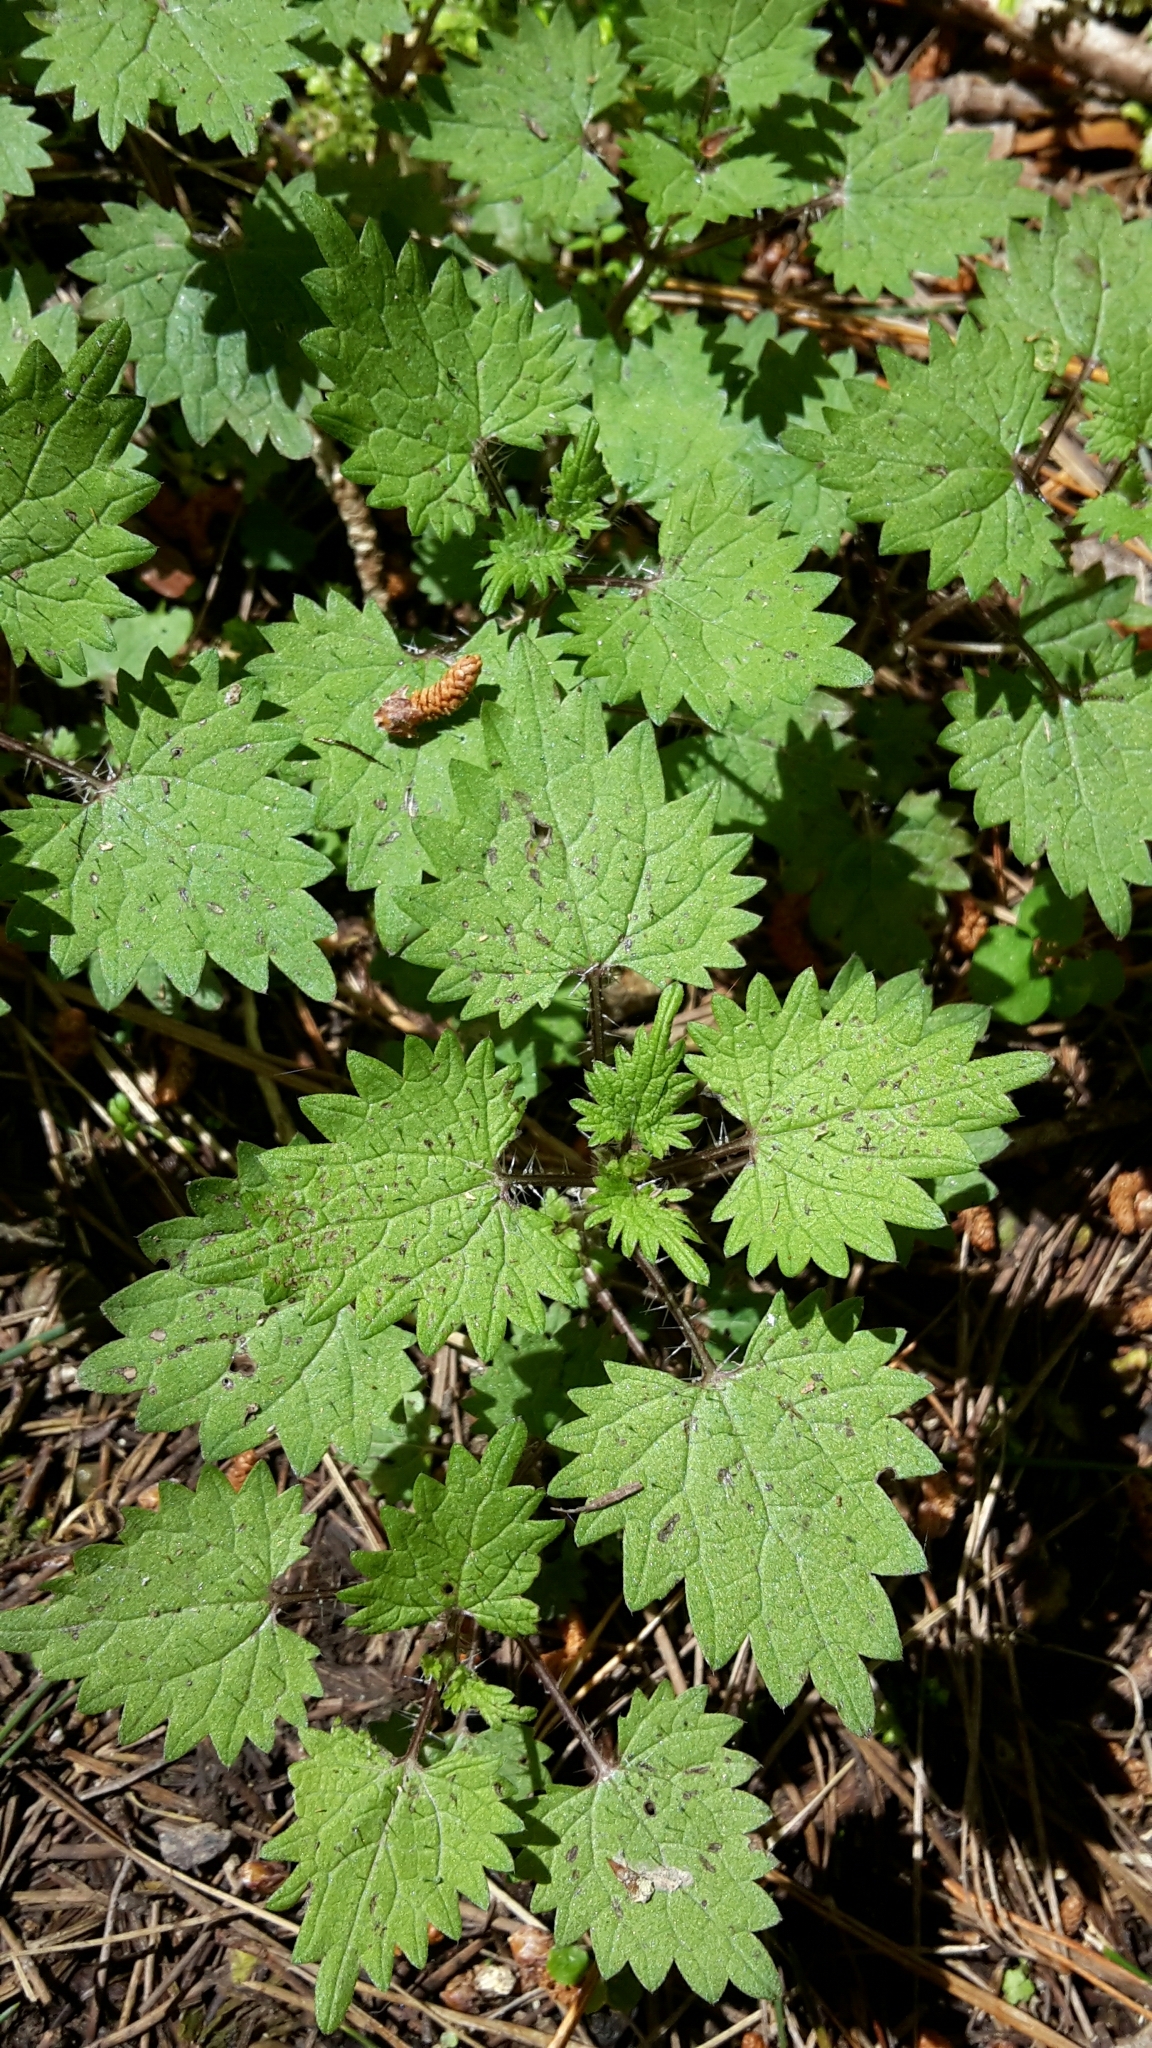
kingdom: Plantae
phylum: Tracheophyta
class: Magnoliopsida
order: Rosales
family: Urticaceae
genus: Urtica
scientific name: Urtica sykesii
